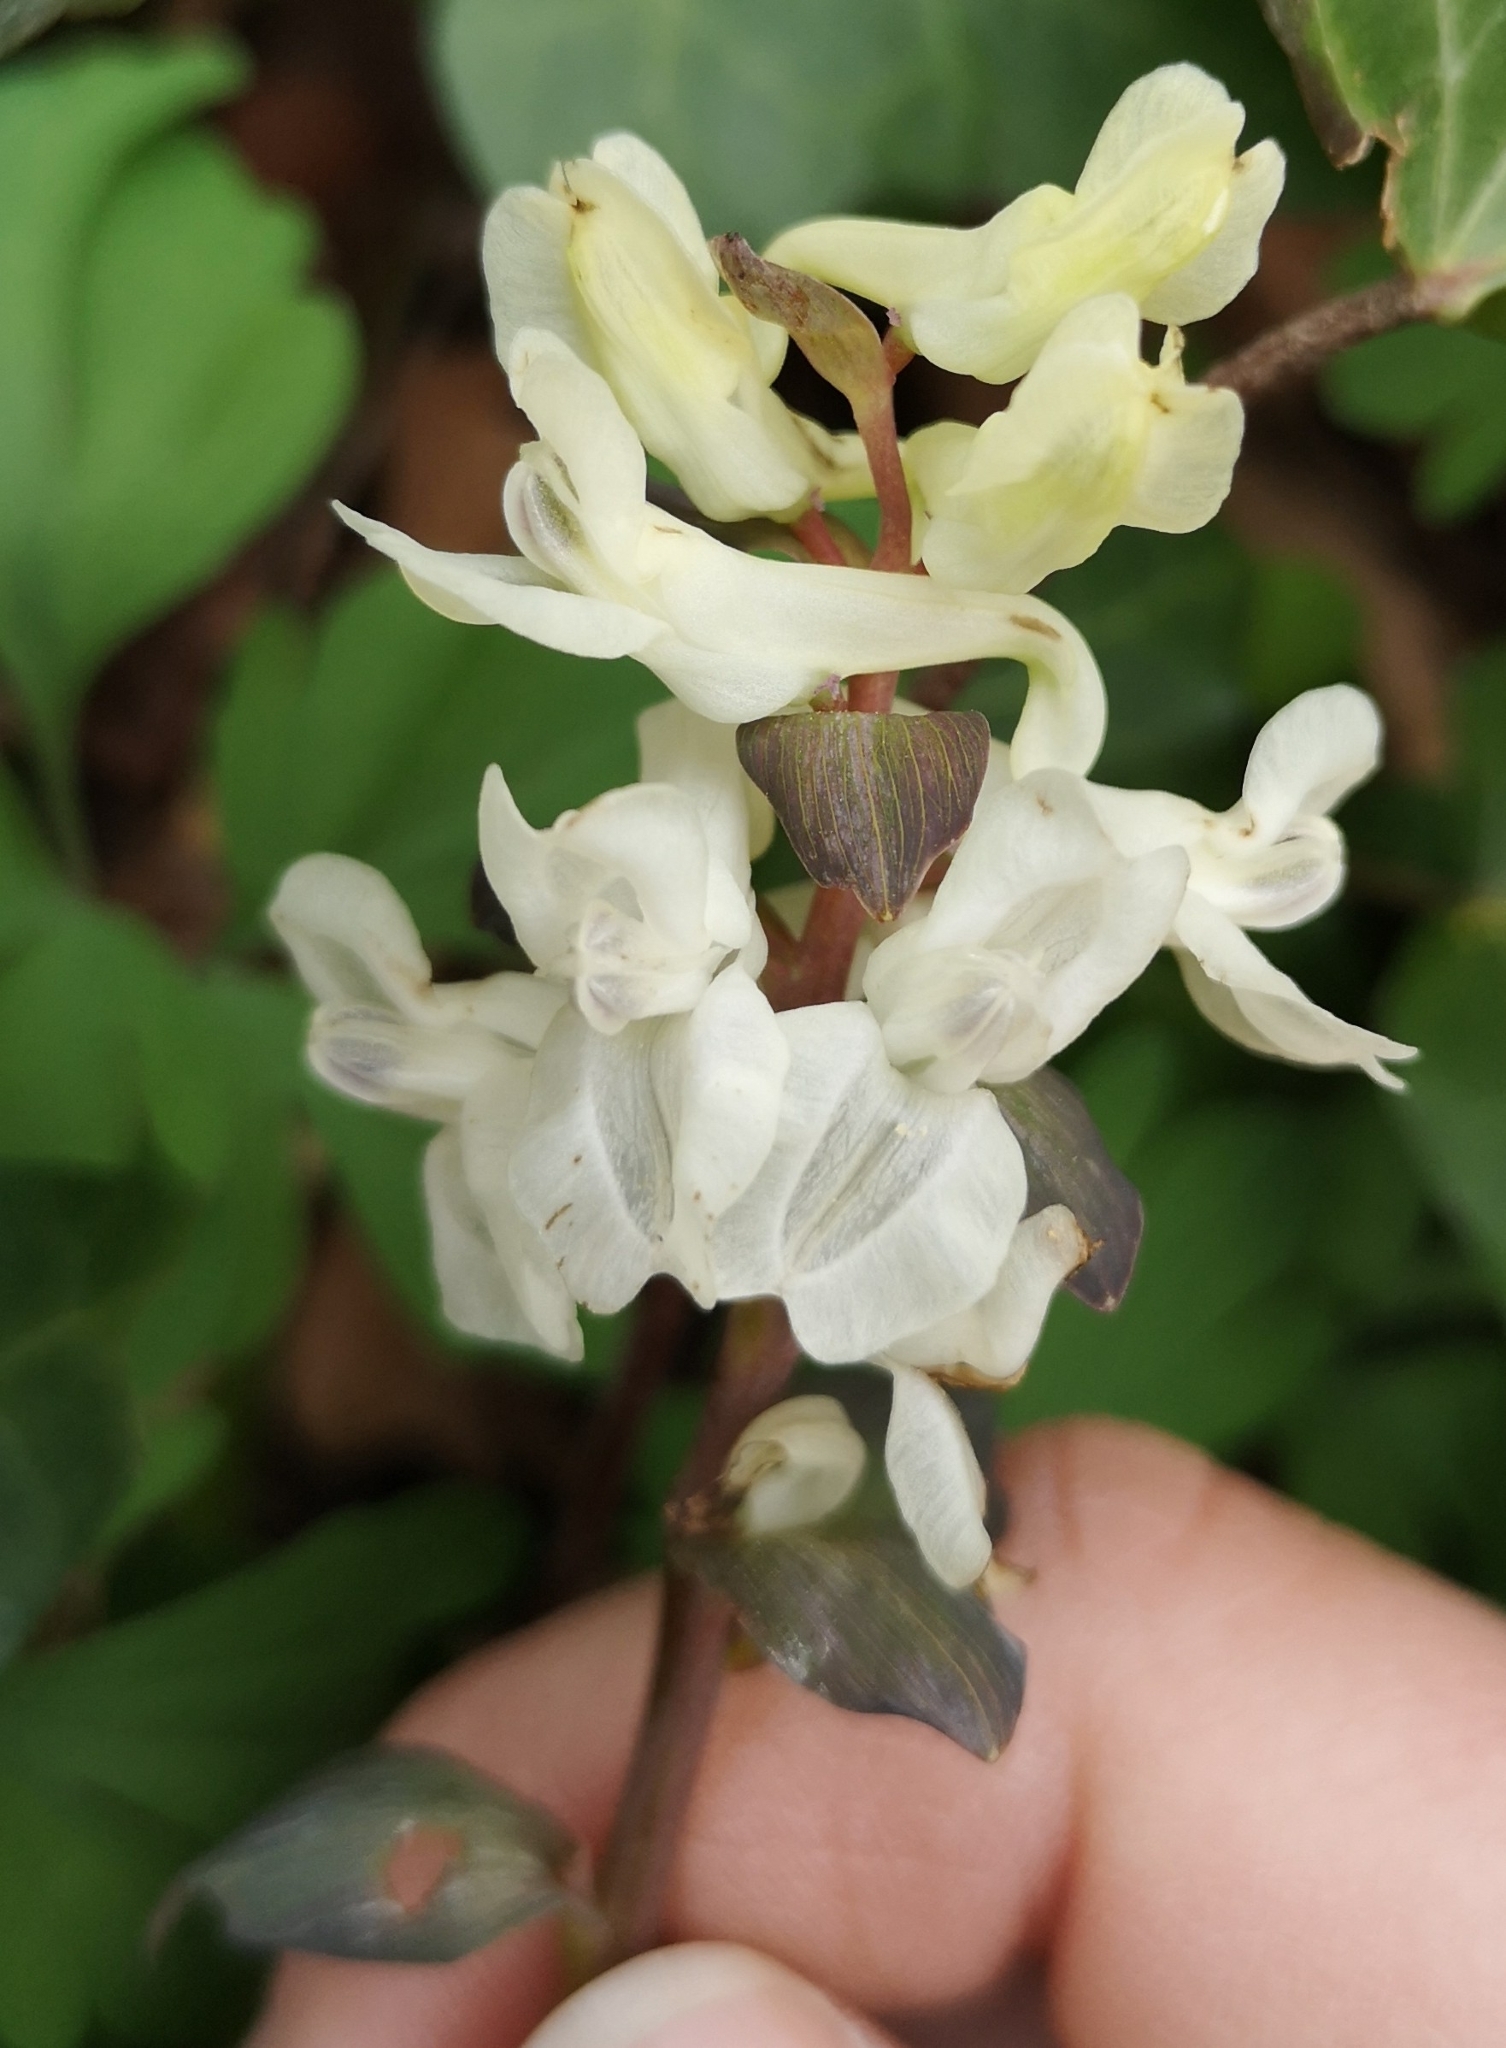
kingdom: Plantae
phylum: Tracheophyta
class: Magnoliopsida
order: Ranunculales
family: Papaveraceae
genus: Corydalis
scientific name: Corydalis cava
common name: Hollowroot
